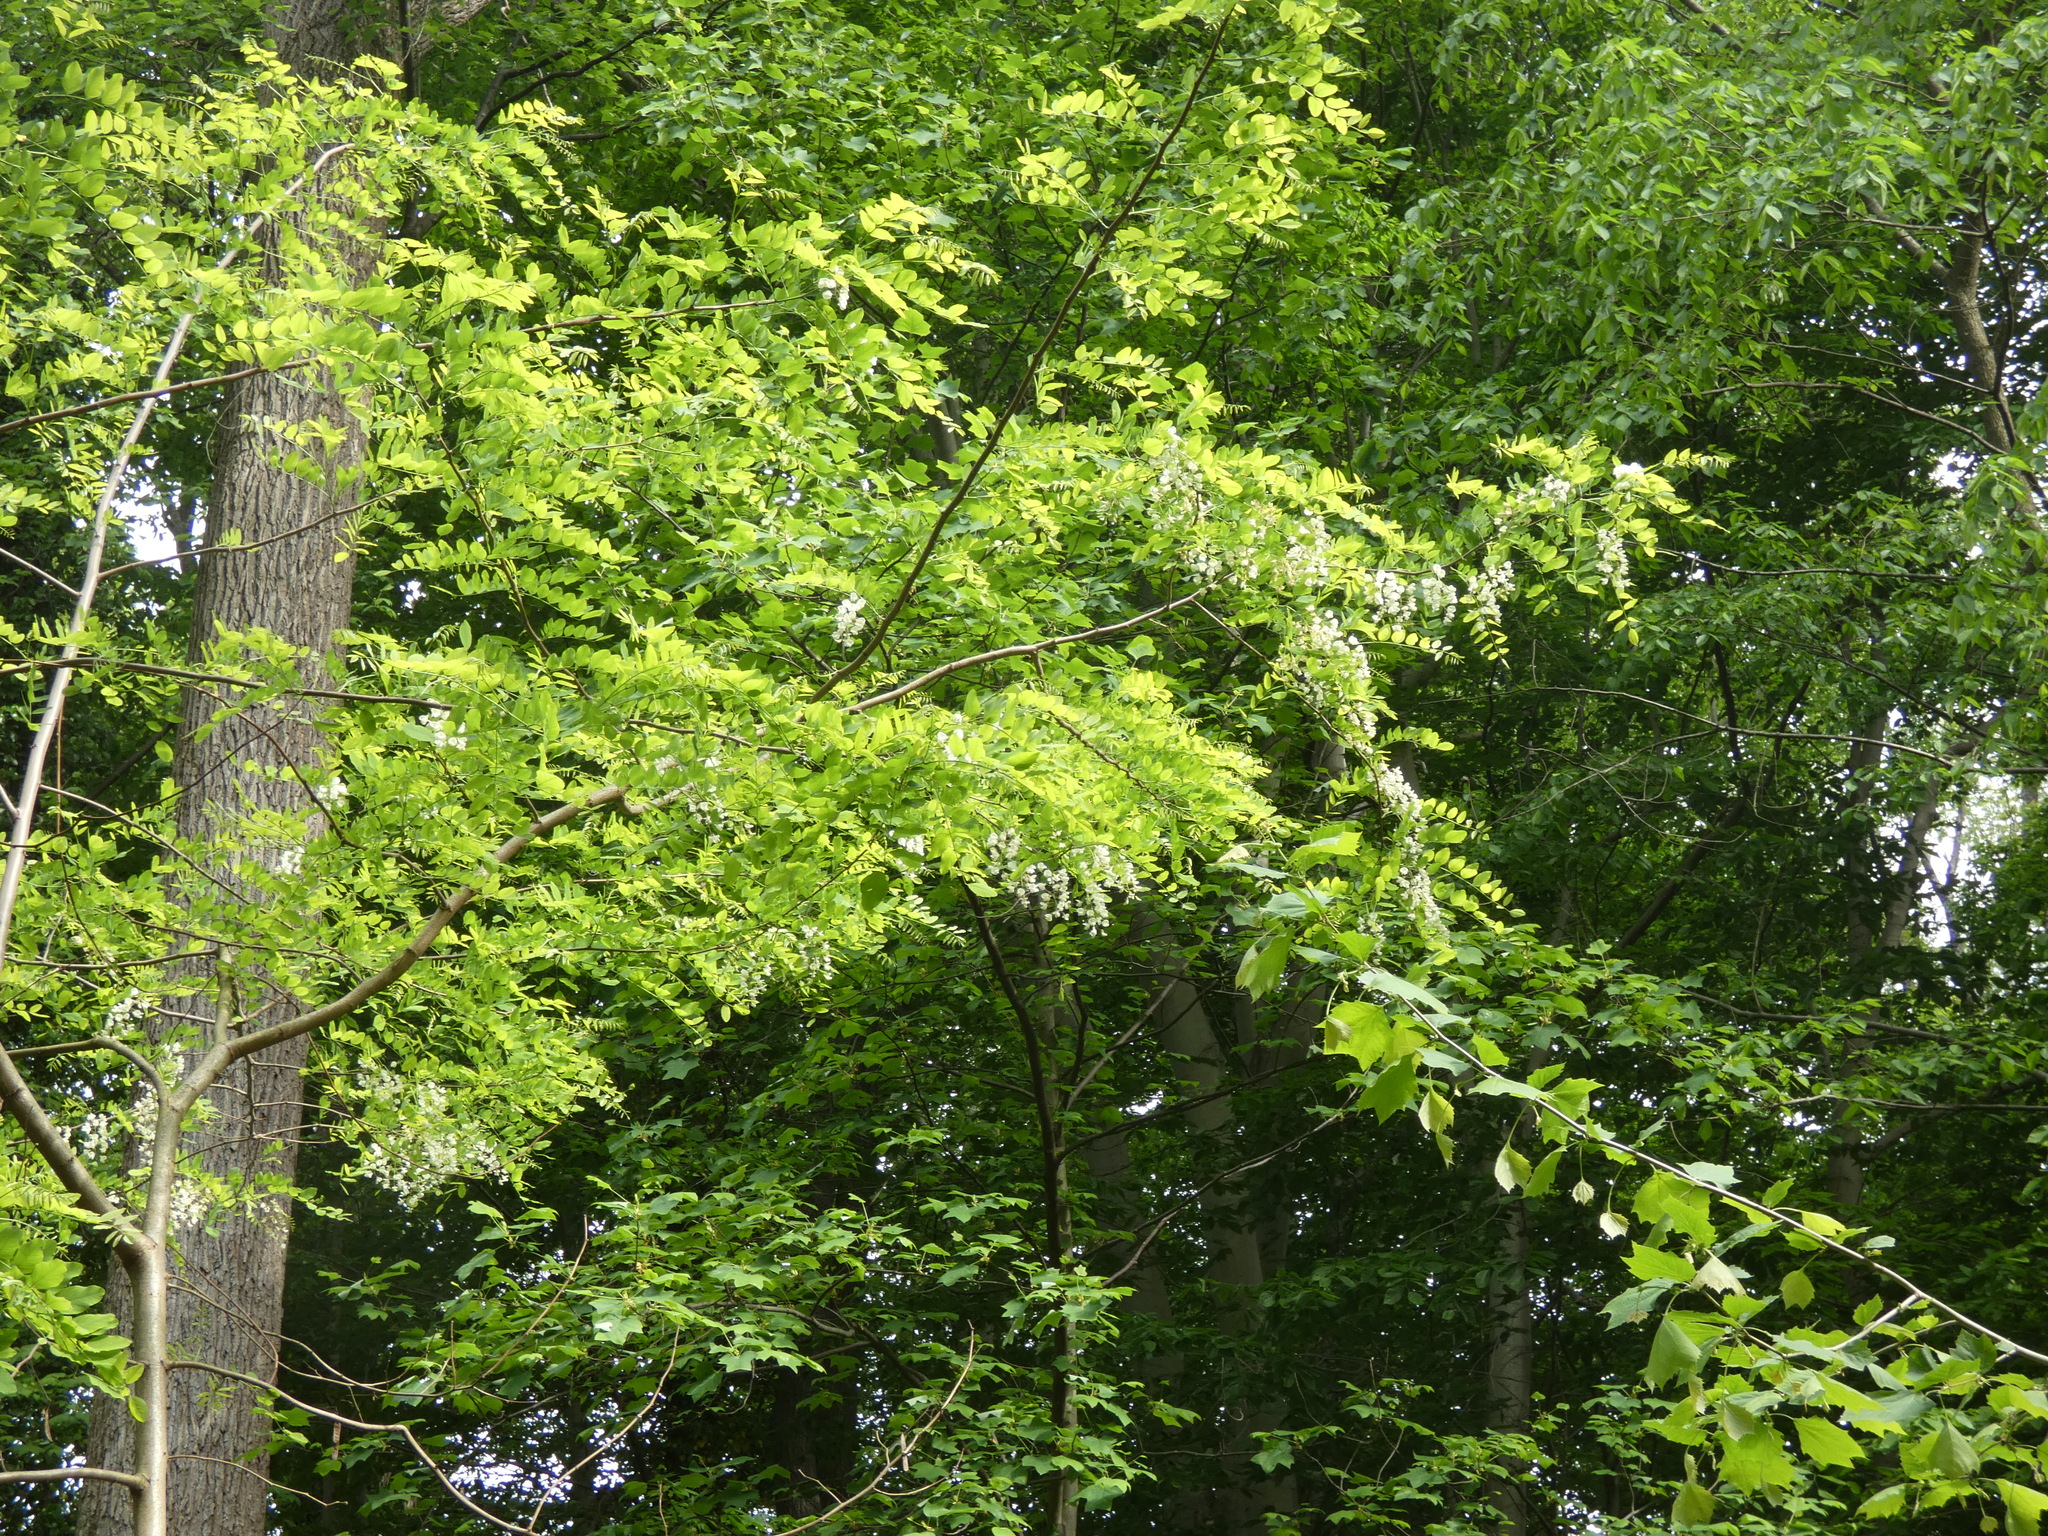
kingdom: Plantae
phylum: Tracheophyta
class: Magnoliopsida
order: Fabales
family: Fabaceae
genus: Robinia
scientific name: Robinia pseudoacacia
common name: Black locust
